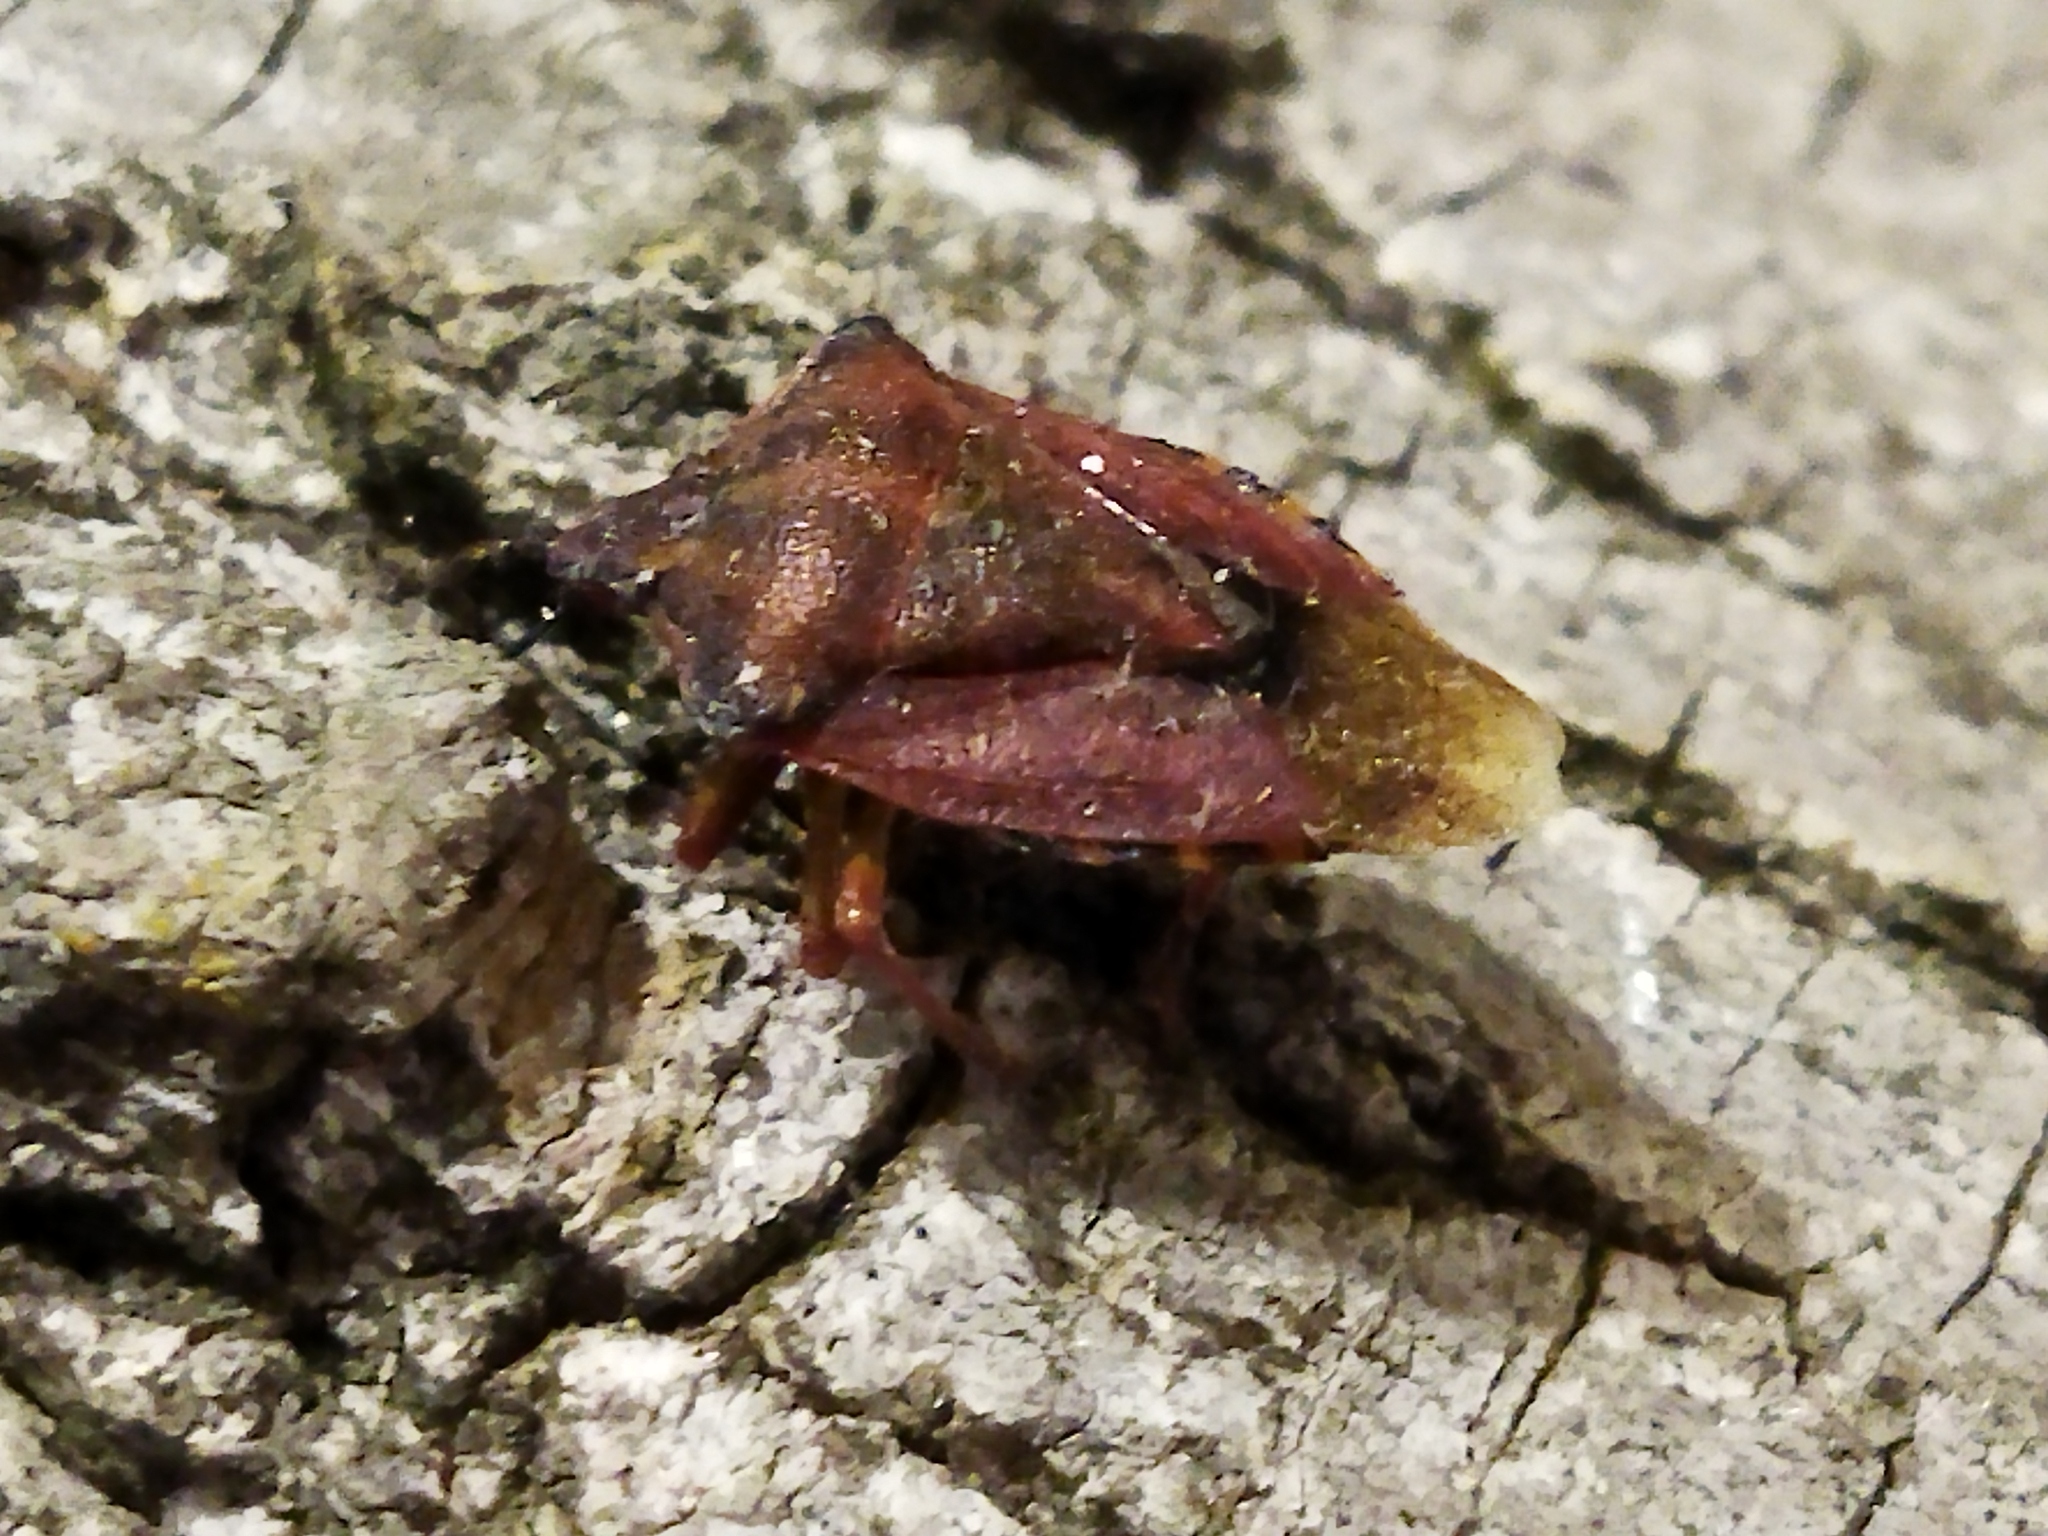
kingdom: Animalia
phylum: Arthropoda
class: Insecta
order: Hemiptera
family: Pentatomidae
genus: Carpocoris
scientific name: Carpocoris purpureipennis
